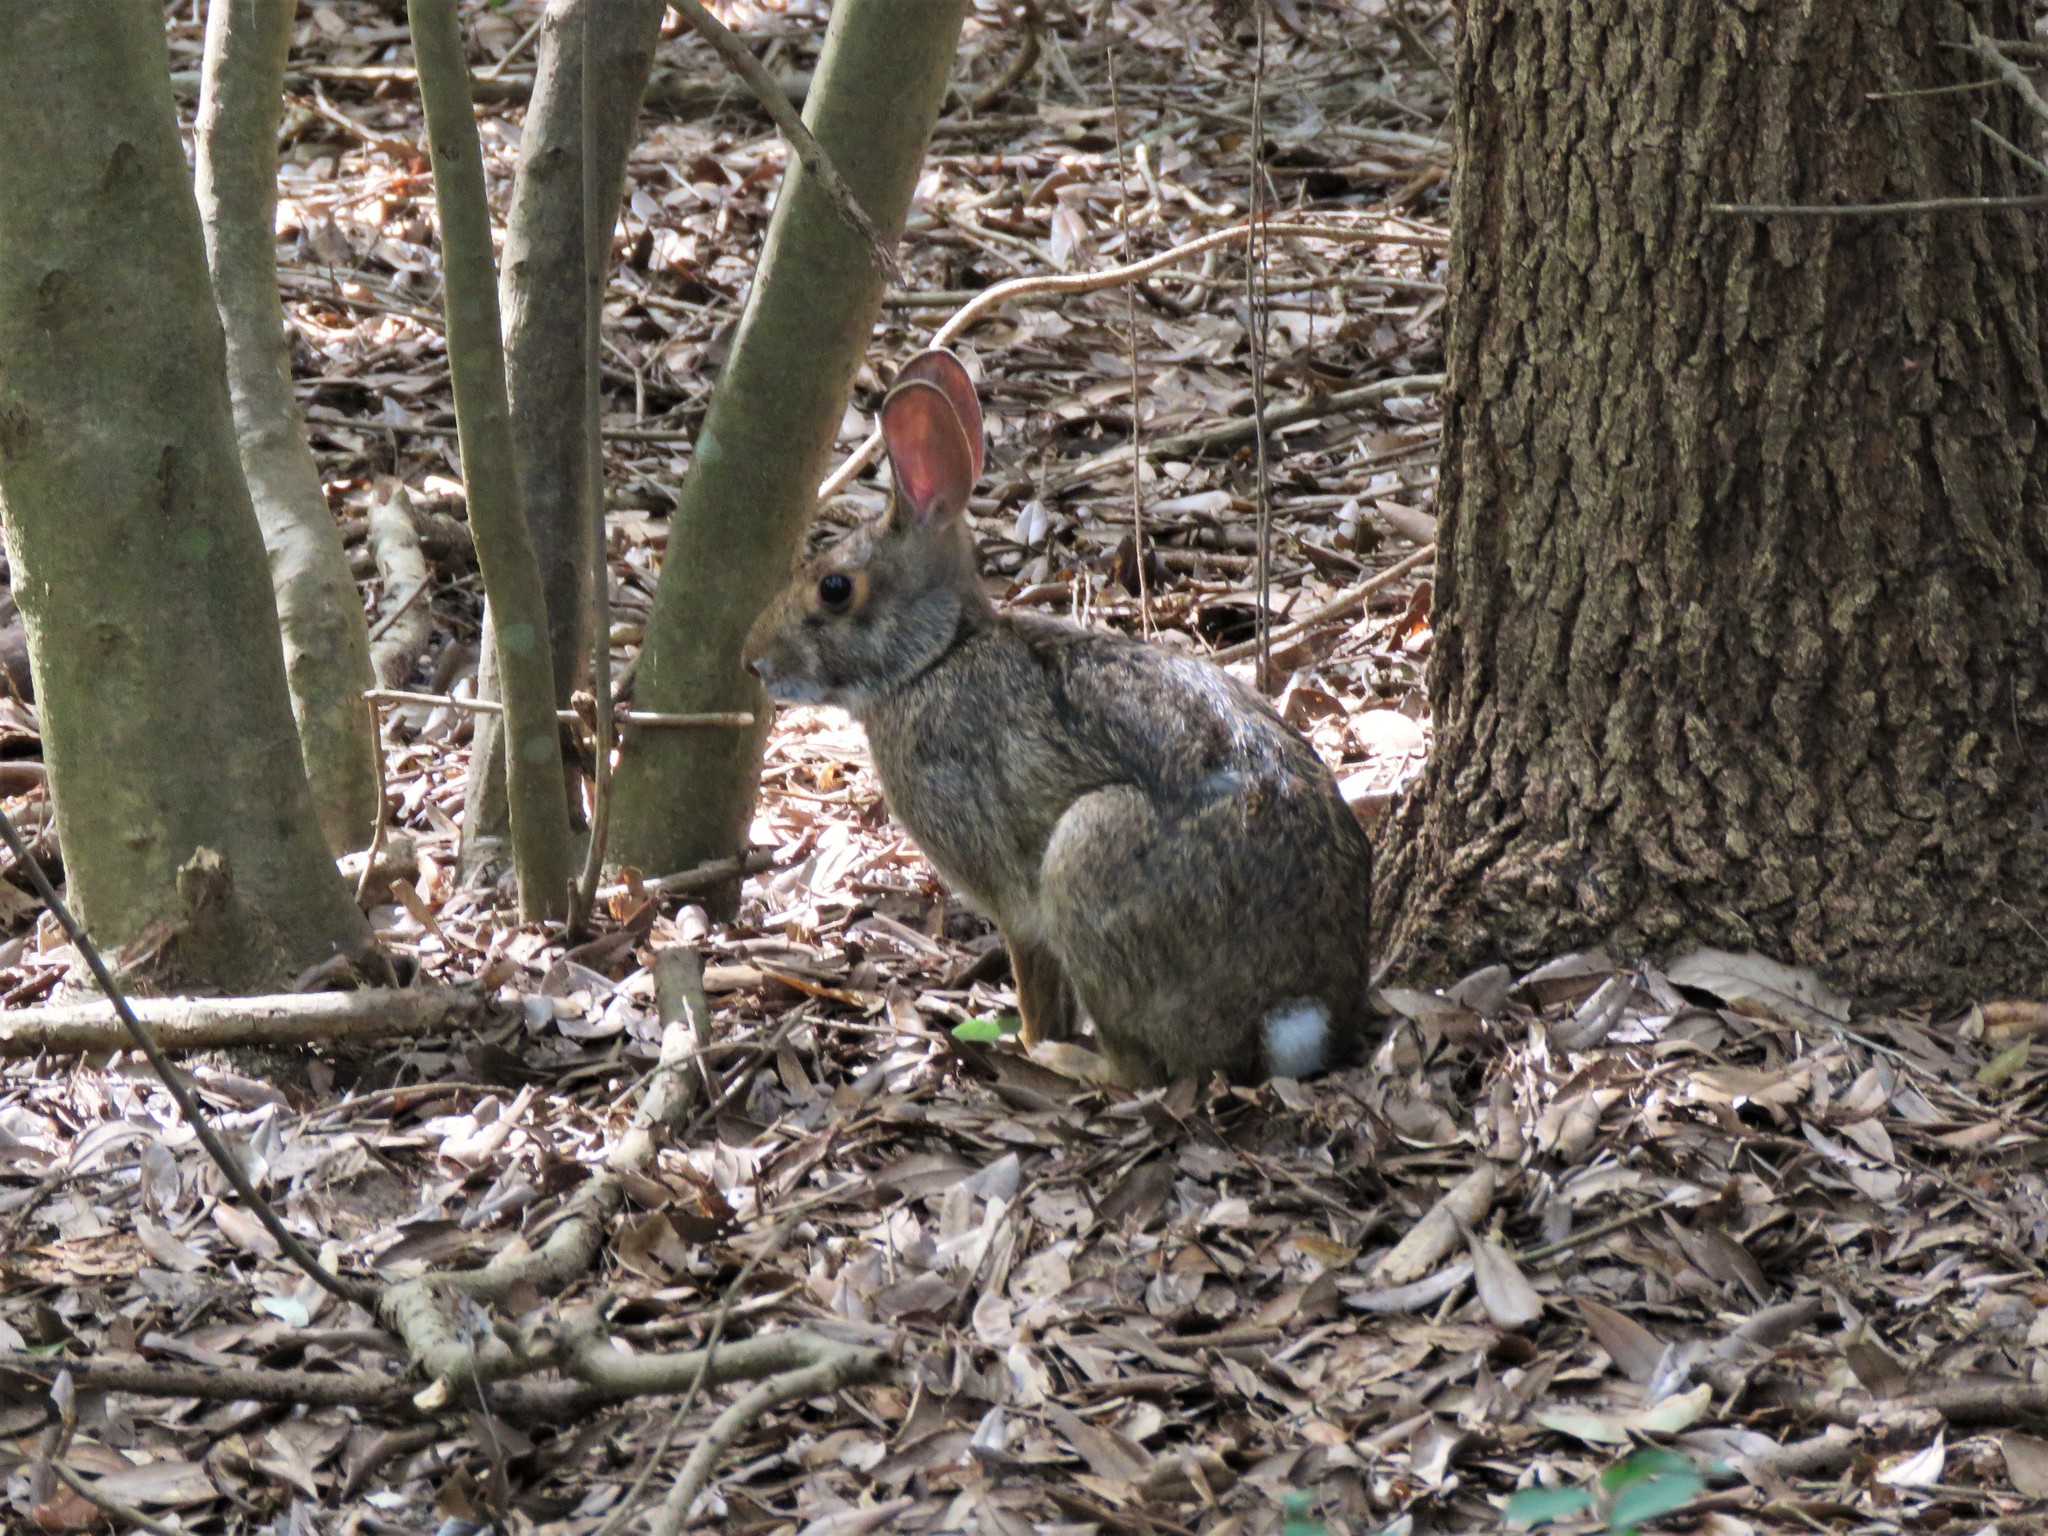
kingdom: Animalia
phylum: Chordata
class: Mammalia
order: Lagomorpha
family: Leporidae
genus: Sylvilagus
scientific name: Sylvilagus aquaticus
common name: Swamp rabbit
